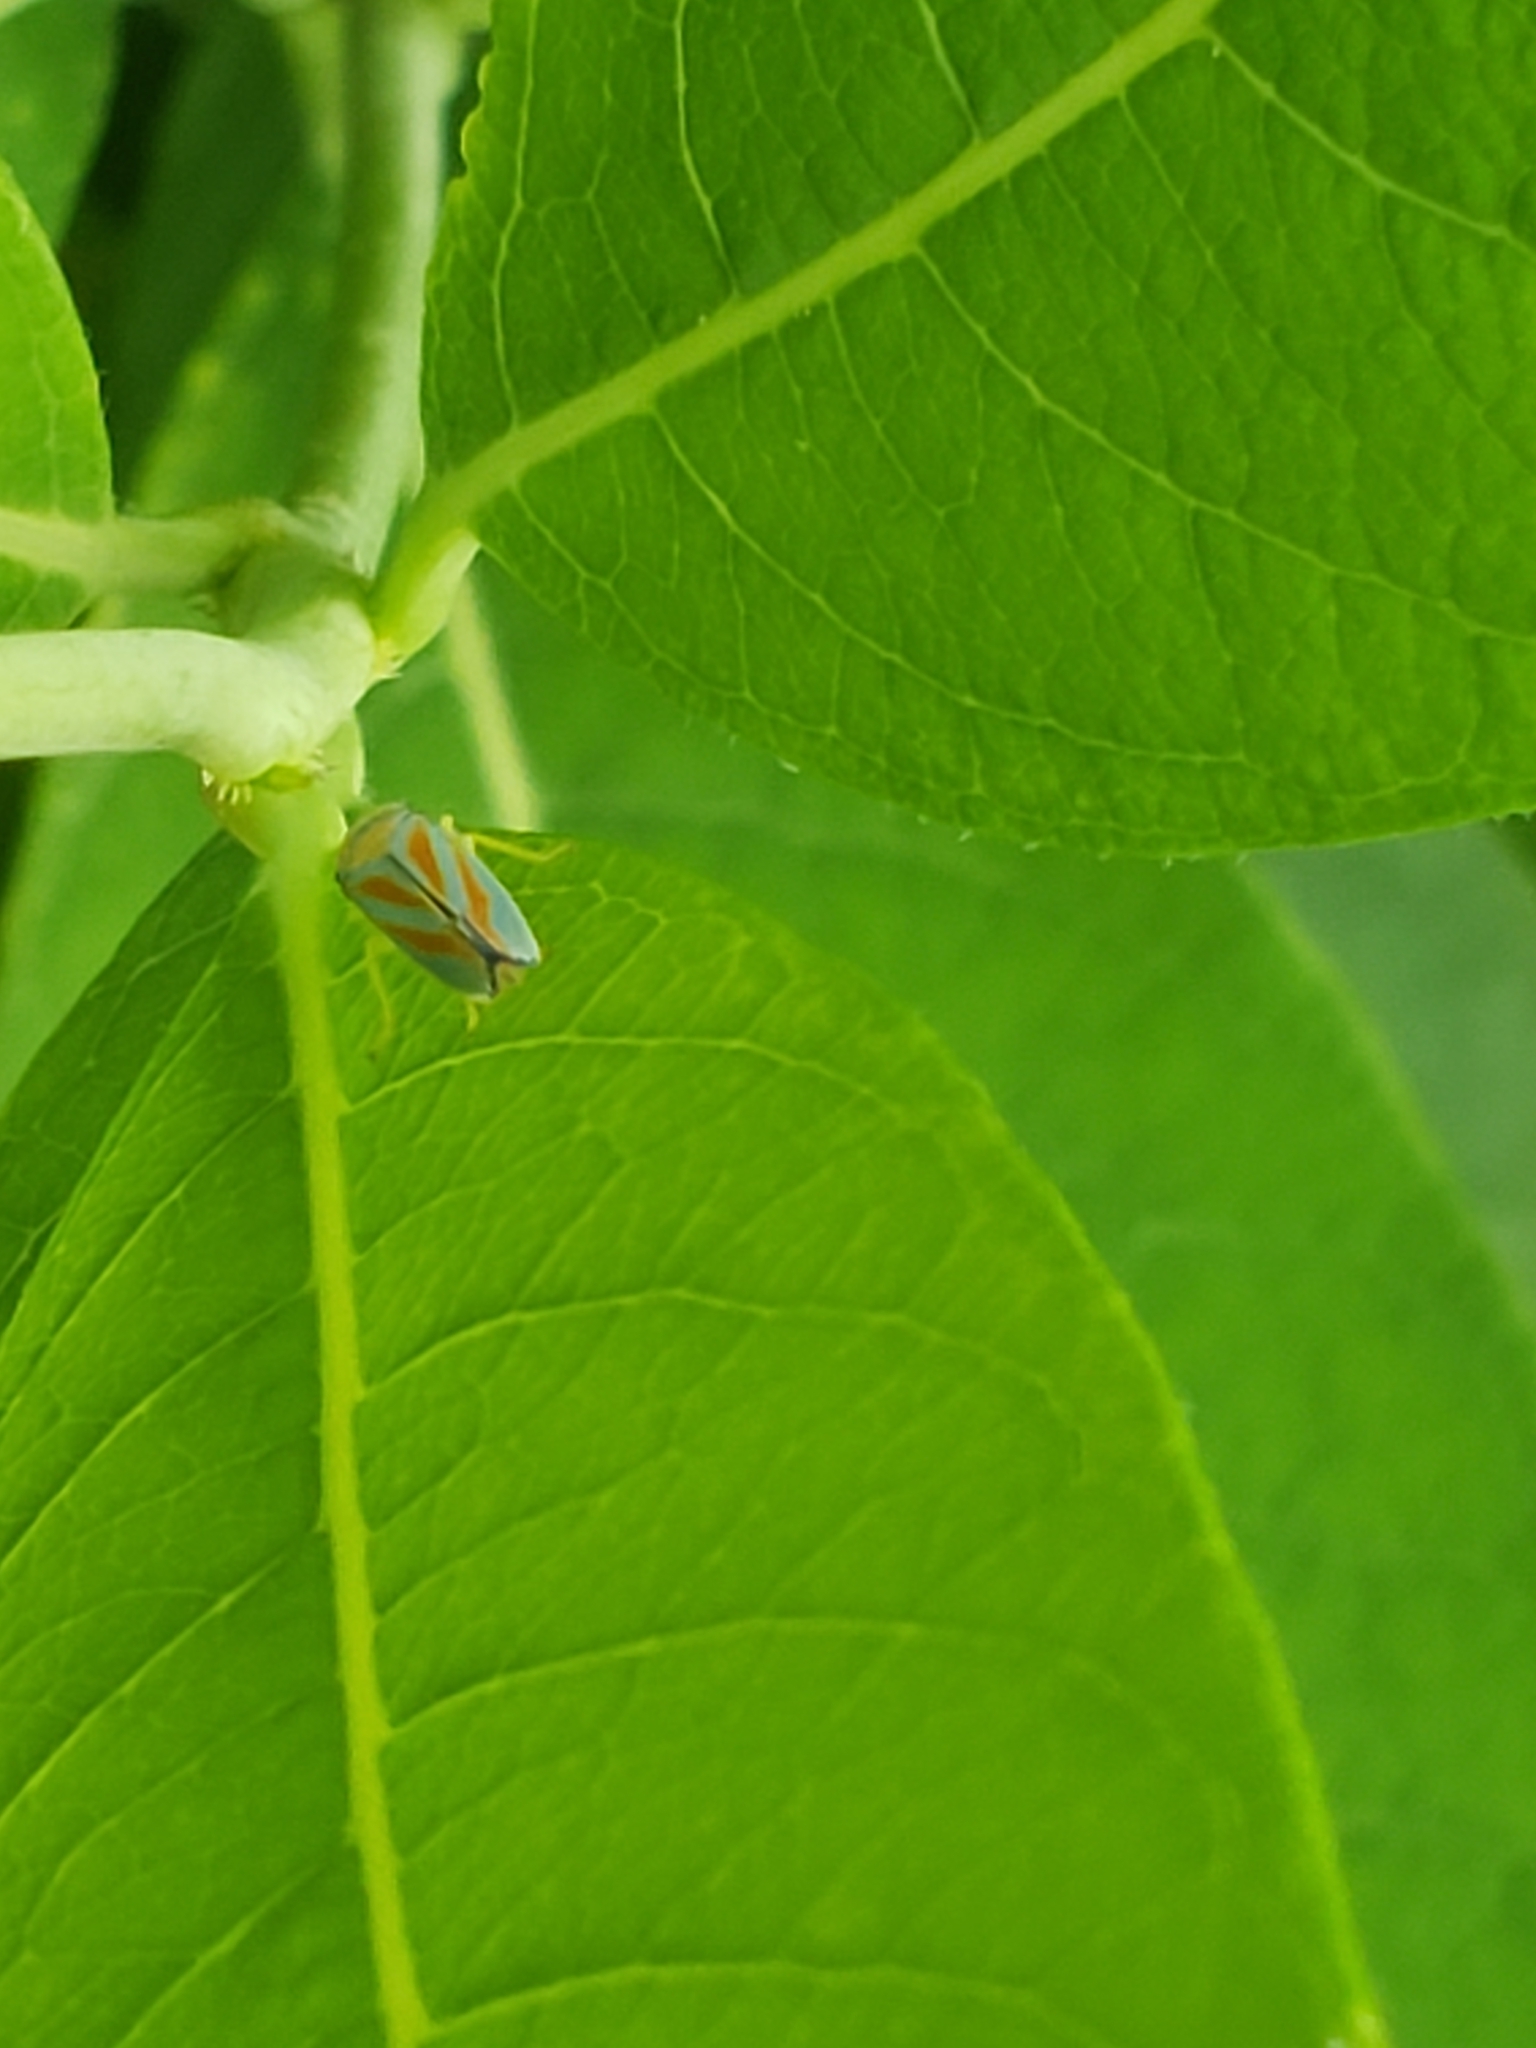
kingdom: Animalia
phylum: Arthropoda
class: Insecta
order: Hemiptera
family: Cicadellidae
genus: Graphocephala
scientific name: Graphocephala fennahi
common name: Rhododendron leafhopper
